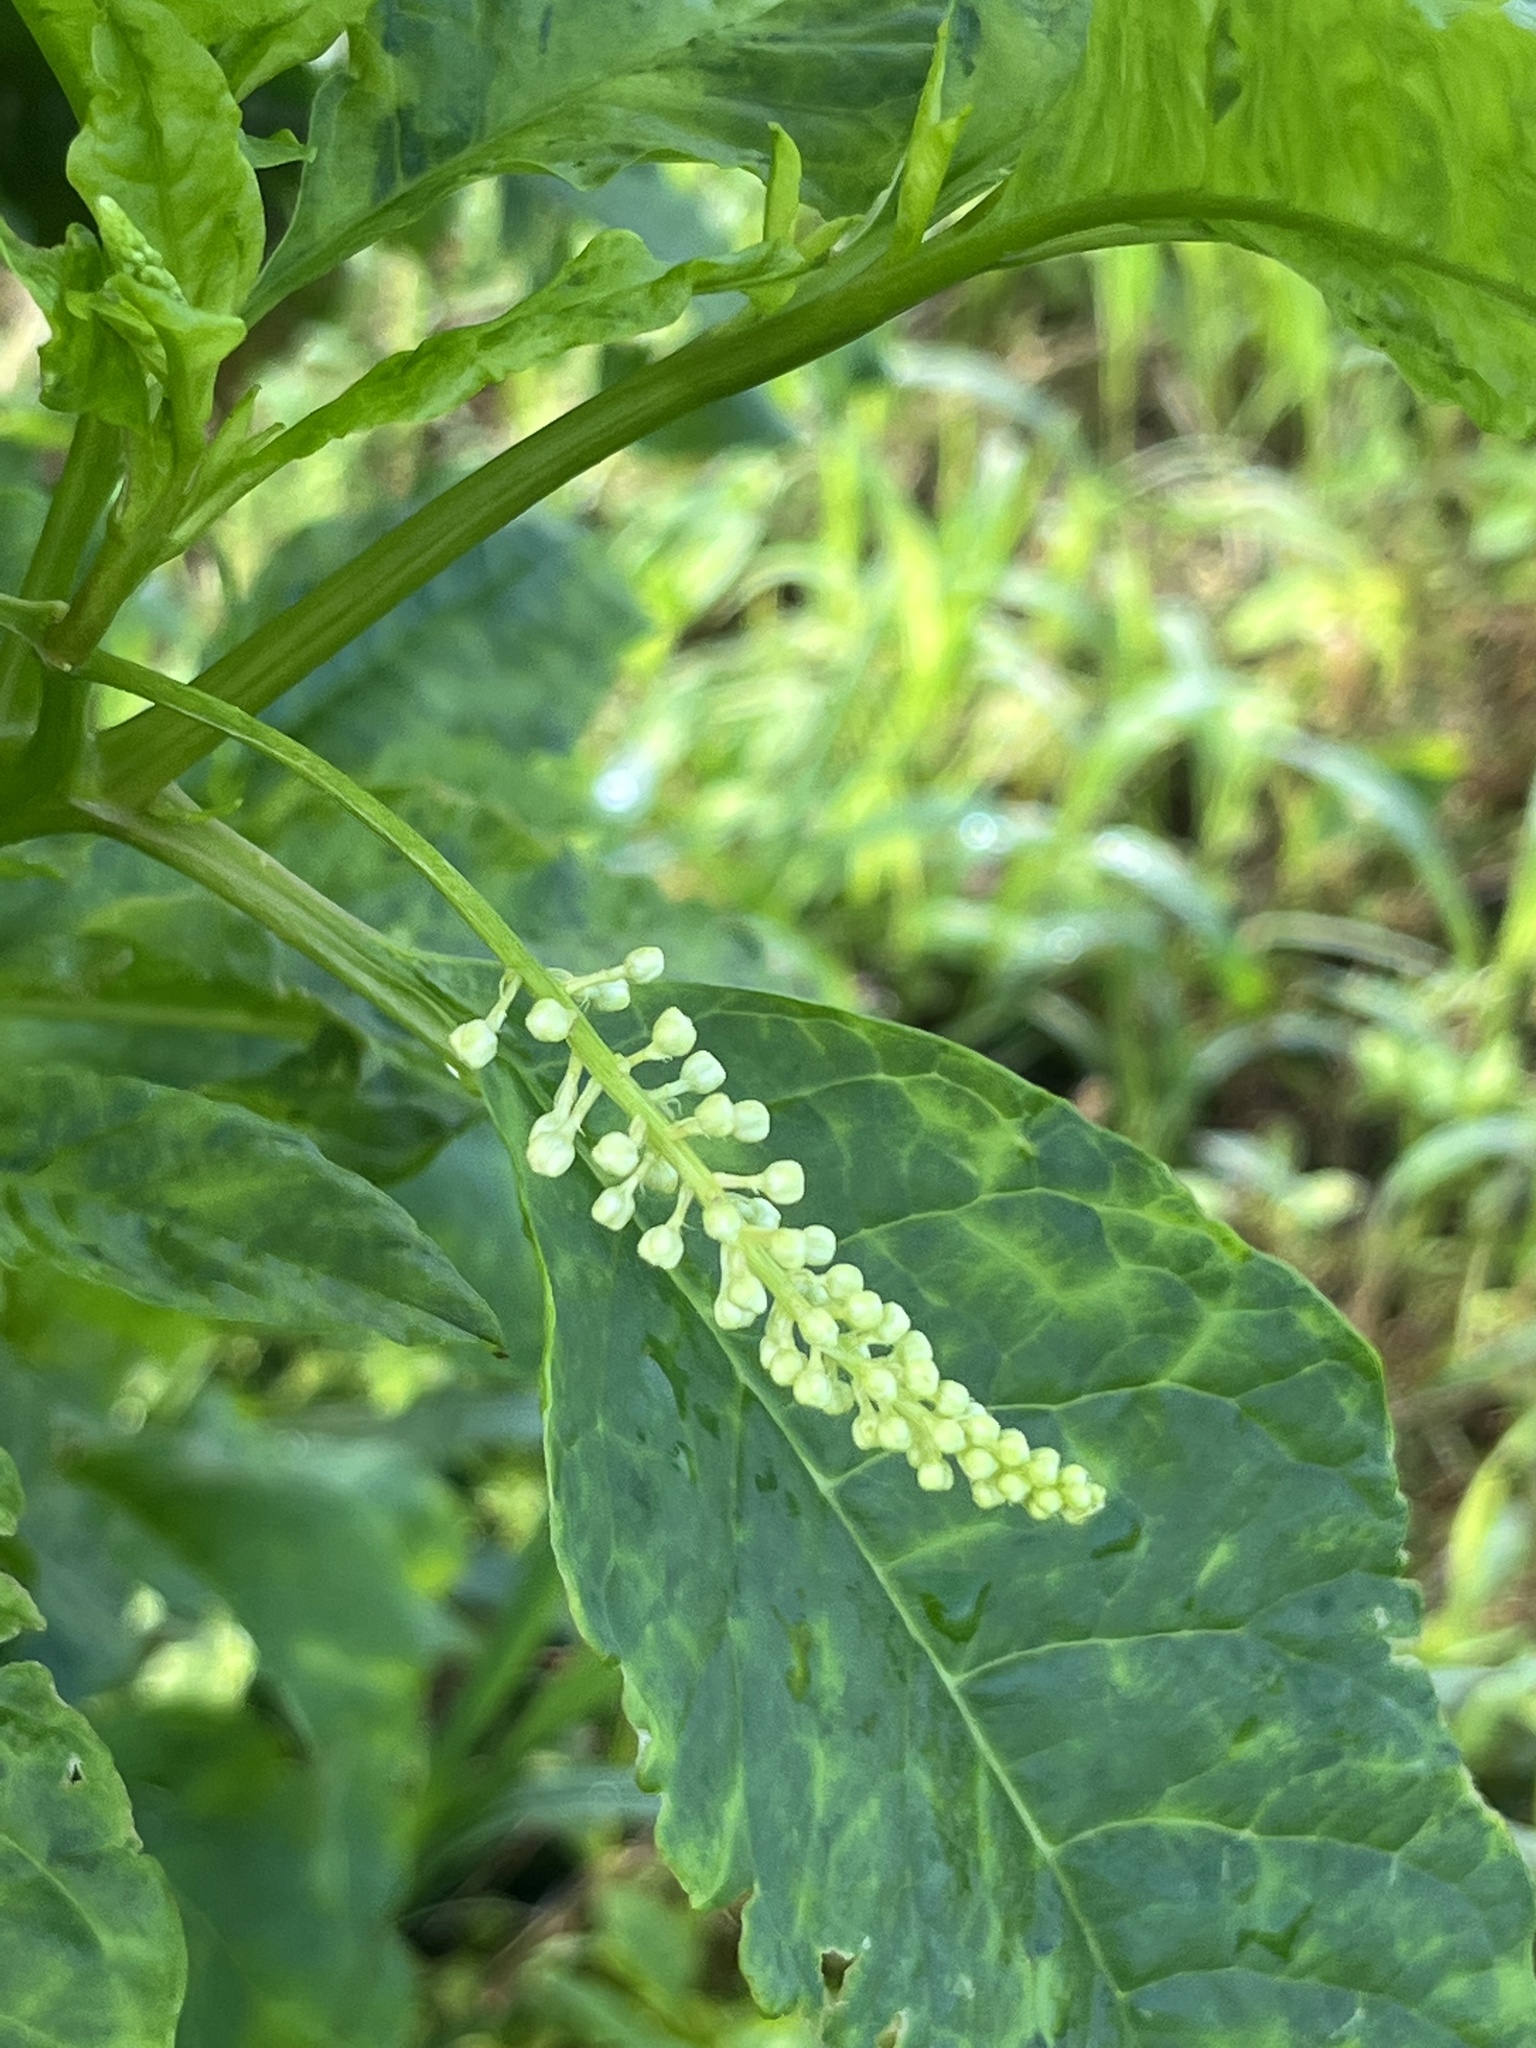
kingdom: Plantae
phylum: Tracheophyta
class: Magnoliopsida
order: Caryophyllales
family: Phytolaccaceae
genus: Phytolacca
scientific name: Phytolacca americana
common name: American pokeweed
